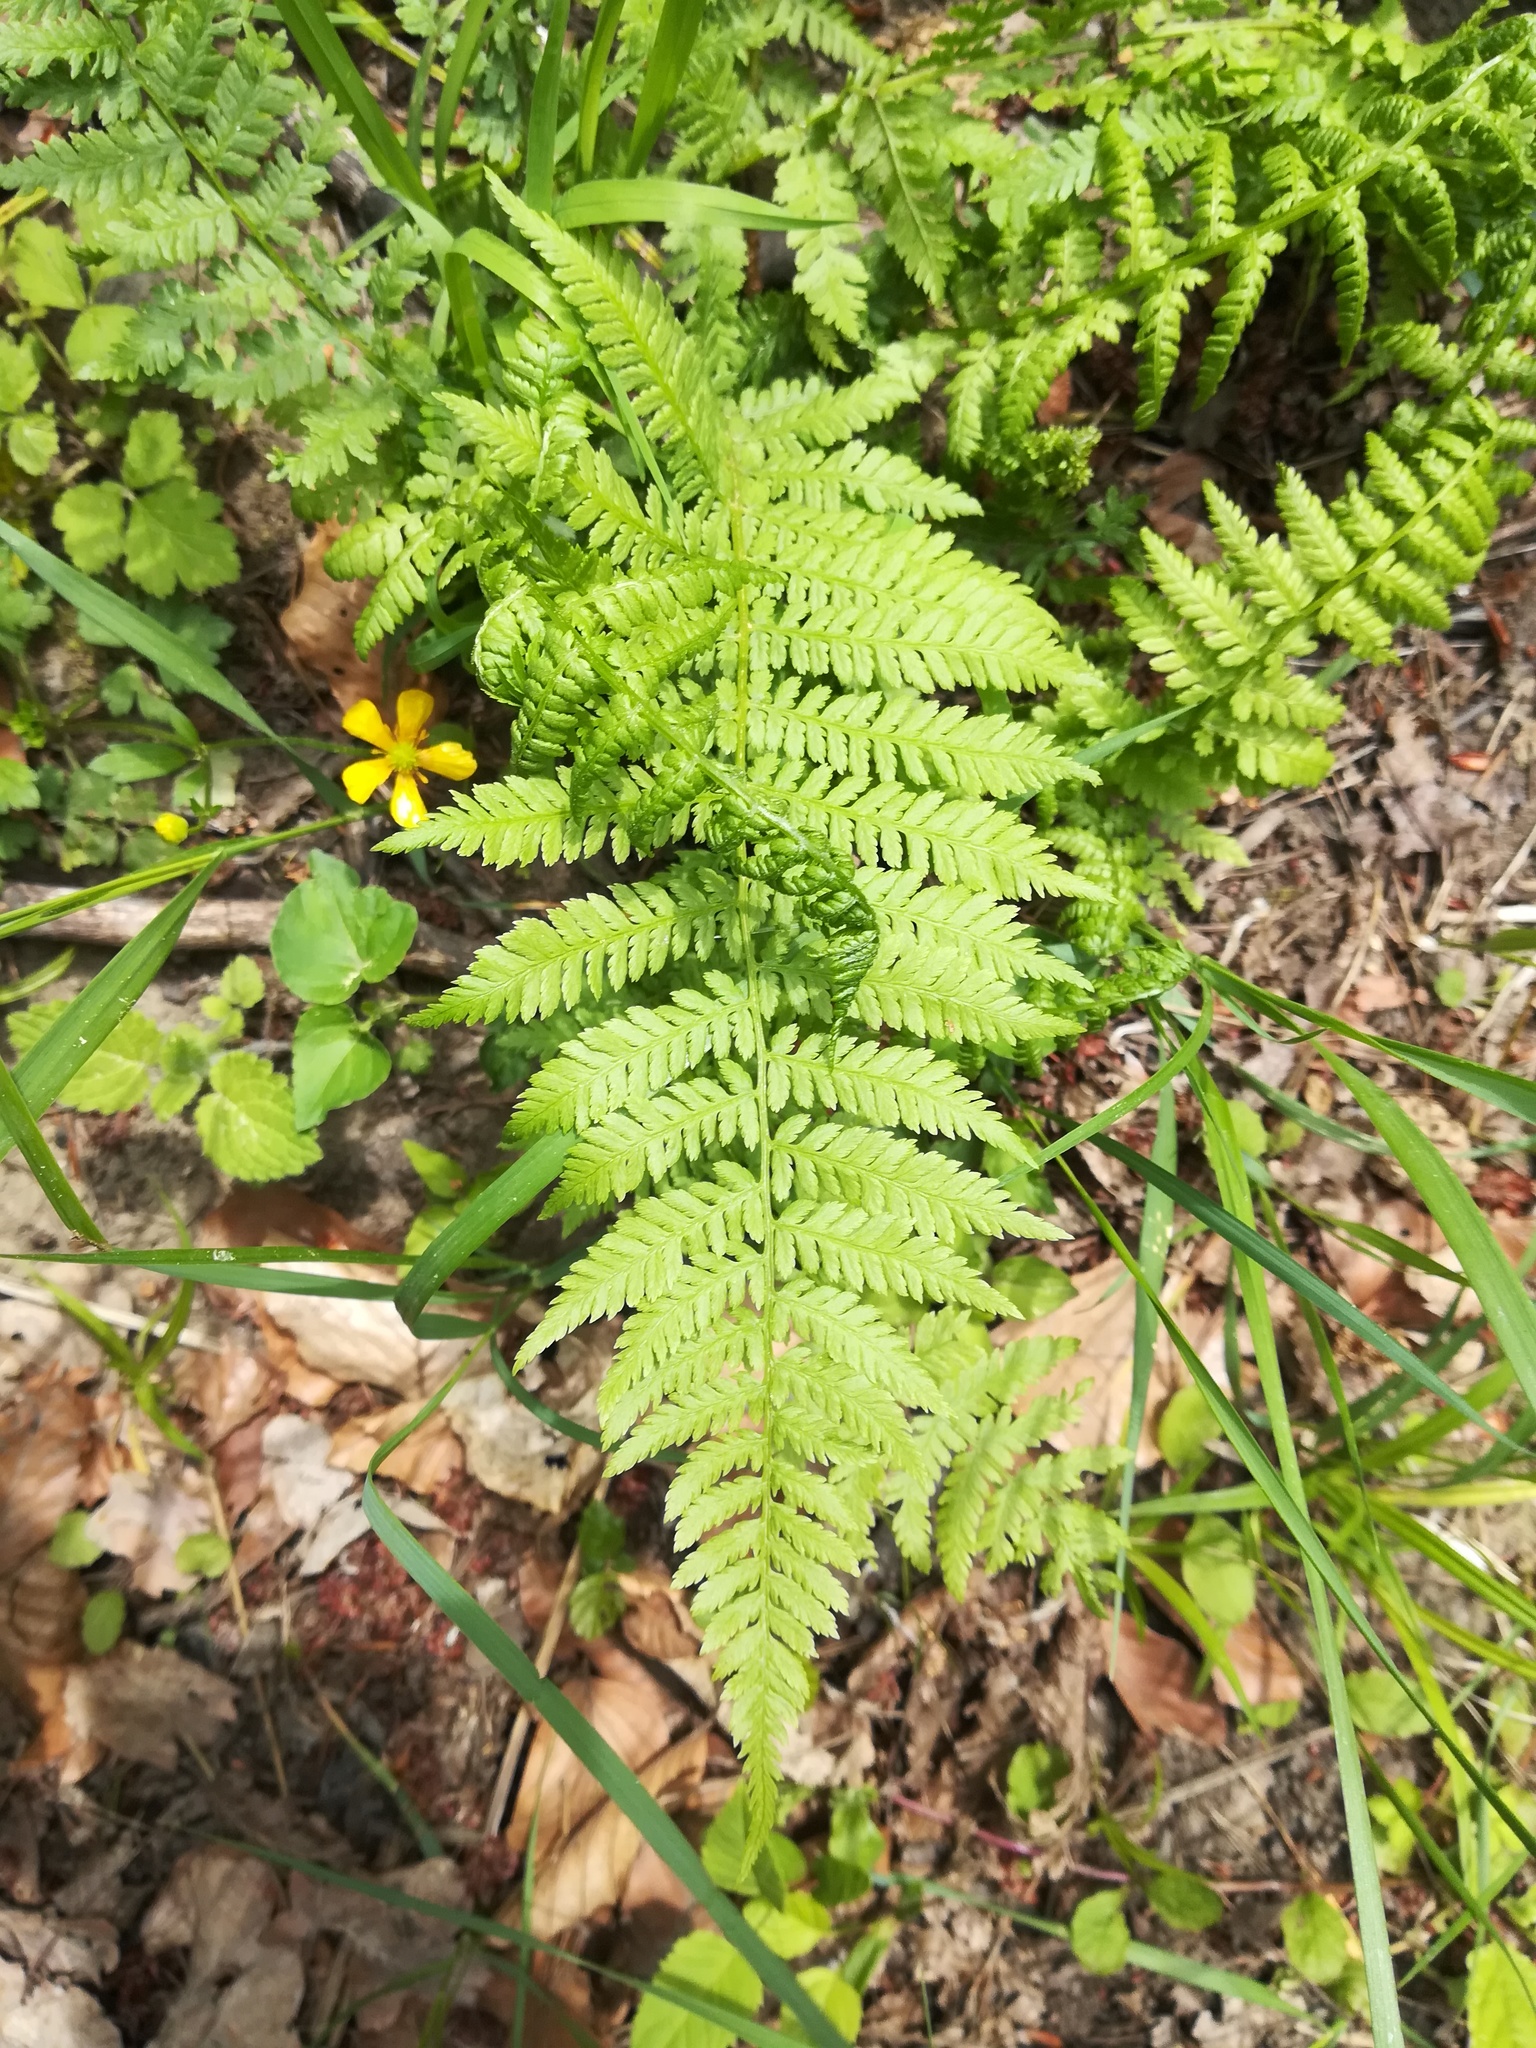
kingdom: Plantae
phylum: Tracheophyta
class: Polypodiopsida
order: Polypodiales
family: Athyriaceae
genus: Athyrium
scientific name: Athyrium filix-femina
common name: Lady fern
